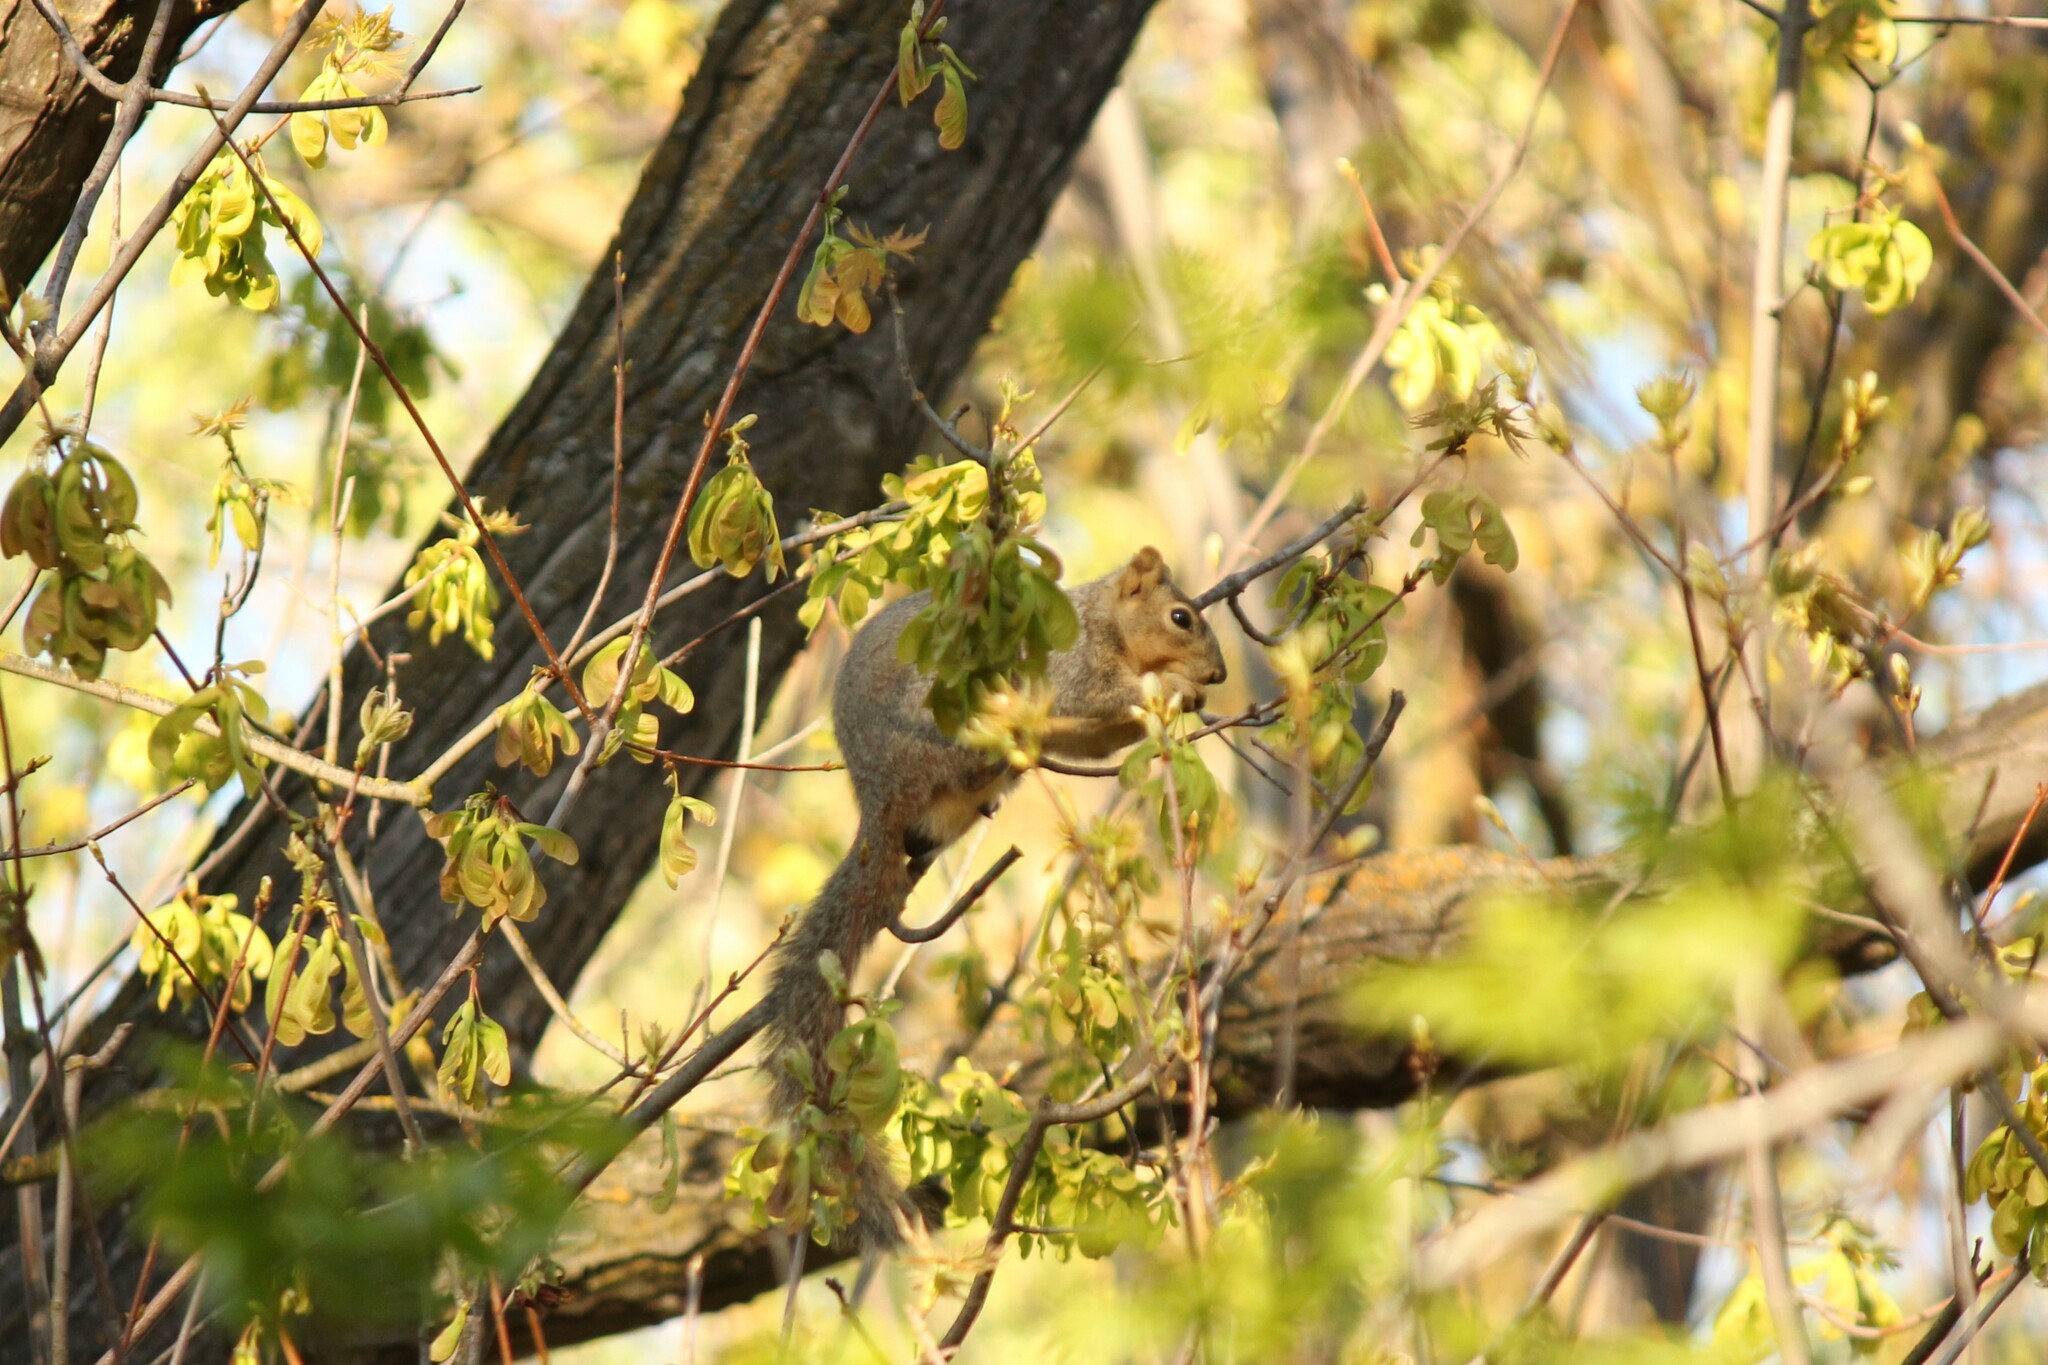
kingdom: Animalia
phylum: Chordata
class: Mammalia
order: Rodentia
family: Sciuridae
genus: Sciurus
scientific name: Sciurus niger
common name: Fox squirrel
